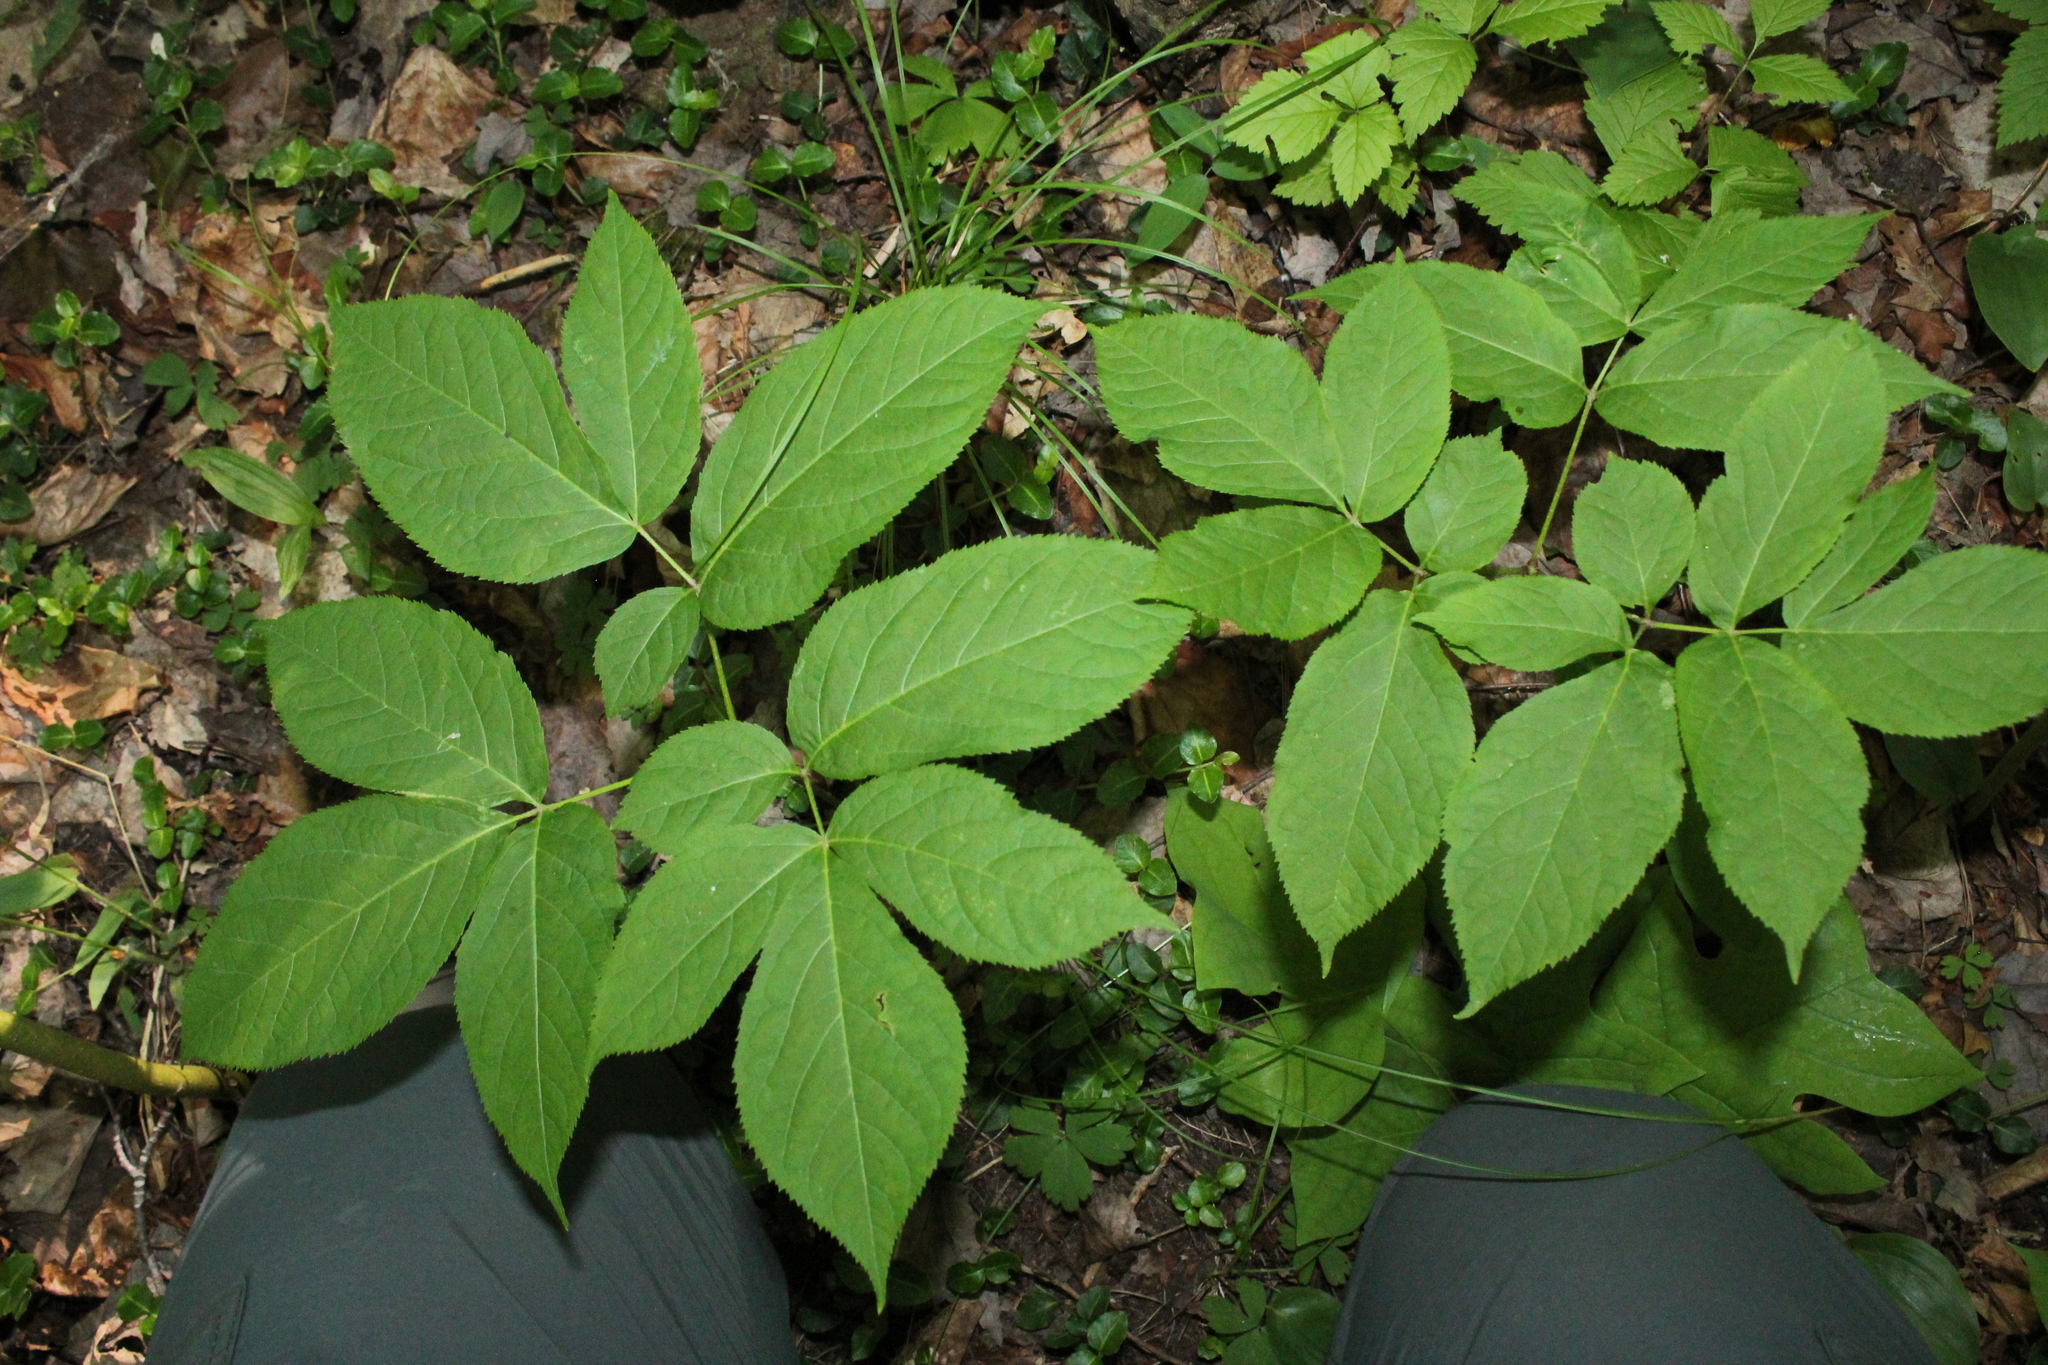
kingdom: Plantae
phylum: Tracheophyta
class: Magnoliopsida
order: Apiales
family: Araliaceae
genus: Aralia
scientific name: Aralia nudicaulis
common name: Wild sarsaparilla
